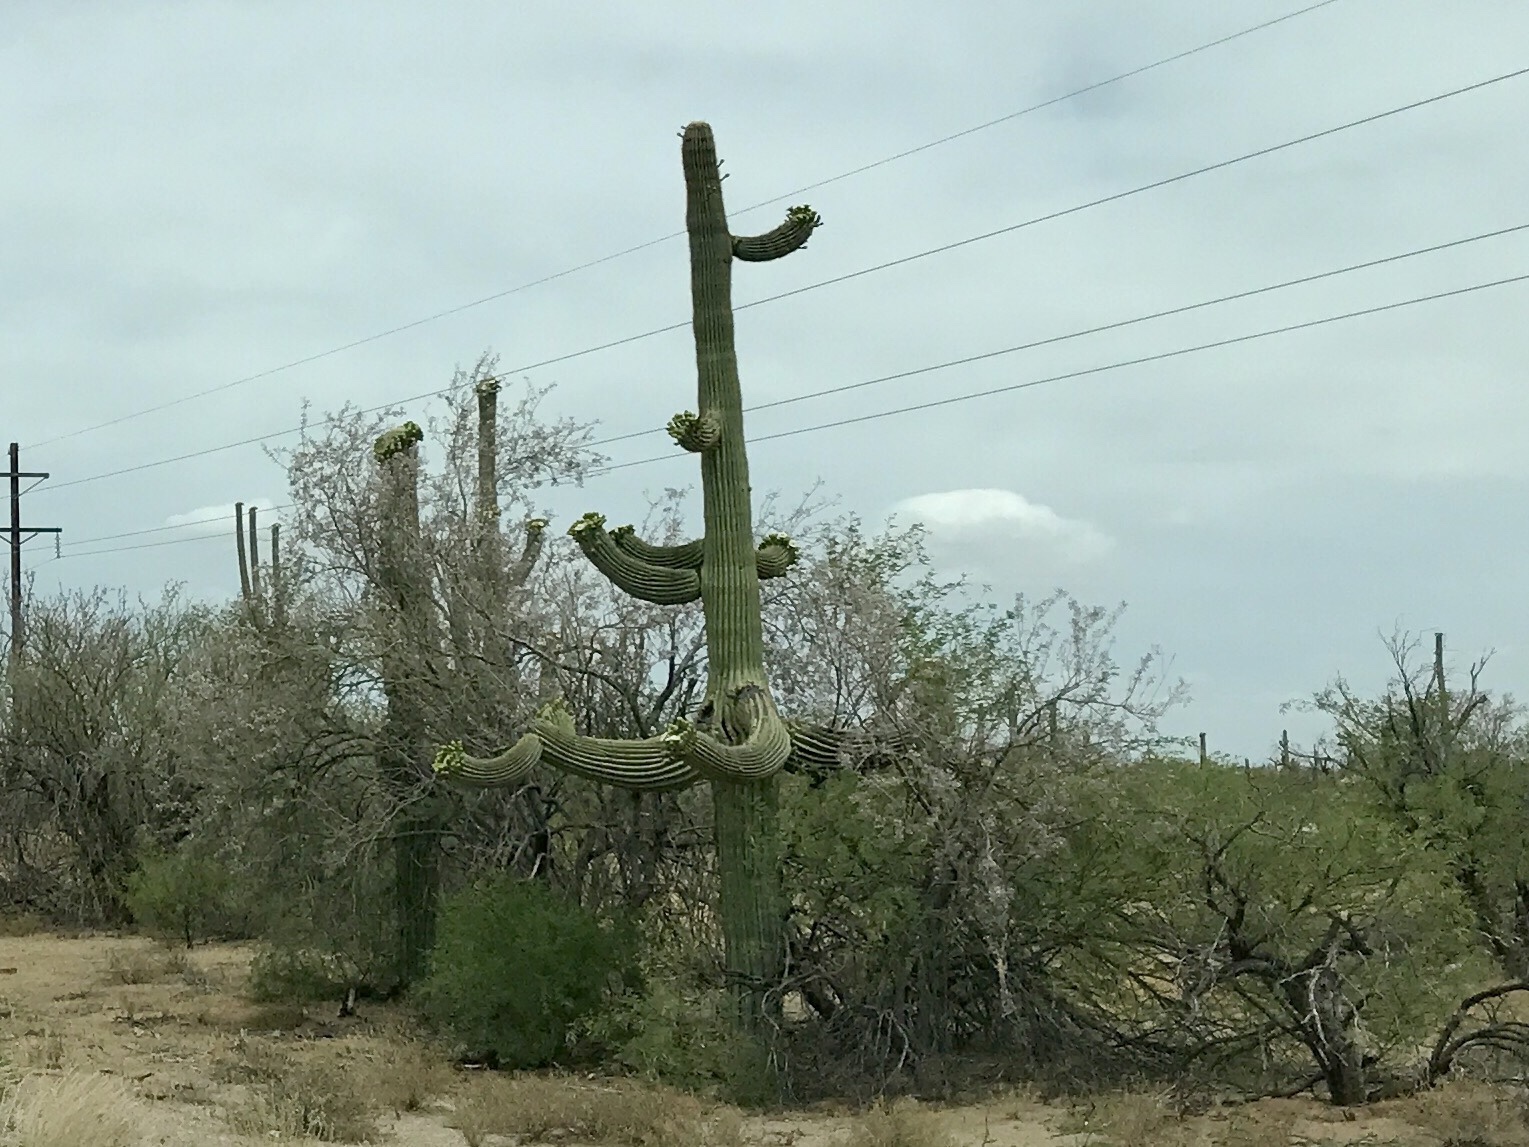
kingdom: Plantae
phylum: Tracheophyta
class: Magnoliopsida
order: Caryophyllales
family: Cactaceae
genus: Carnegiea
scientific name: Carnegiea gigantea
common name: Saguaro
